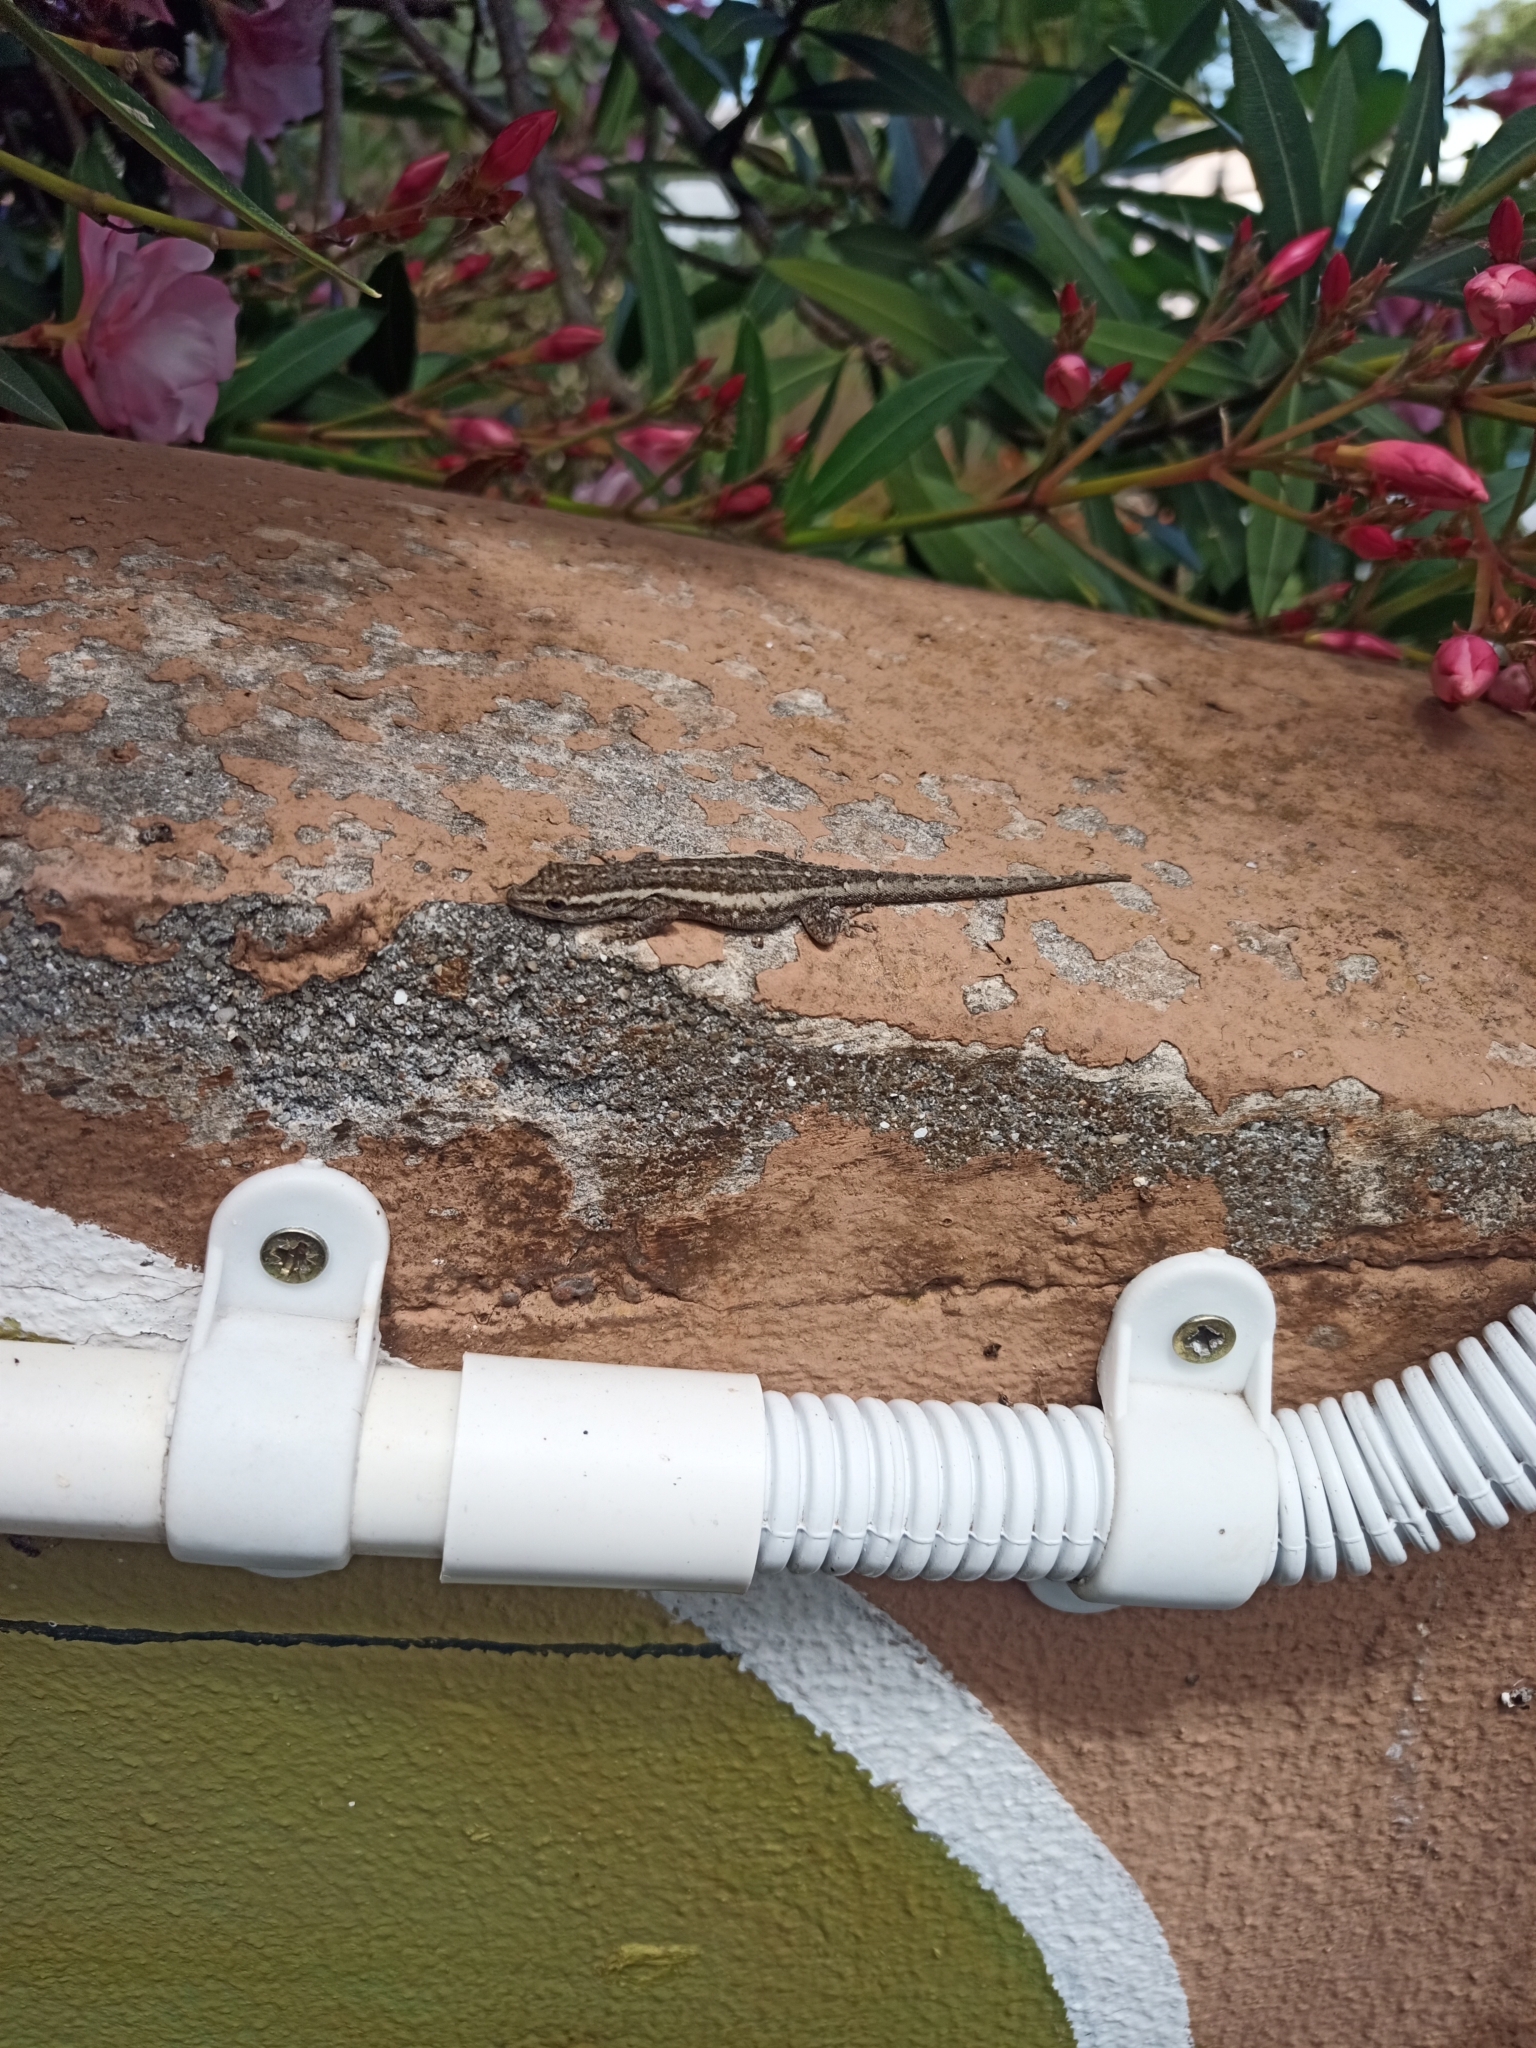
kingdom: Animalia
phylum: Chordata
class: Squamata
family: Gekkonidae
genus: Lygodactylus
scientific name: Lygodactylus capensis
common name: Cape dwarf gecko
